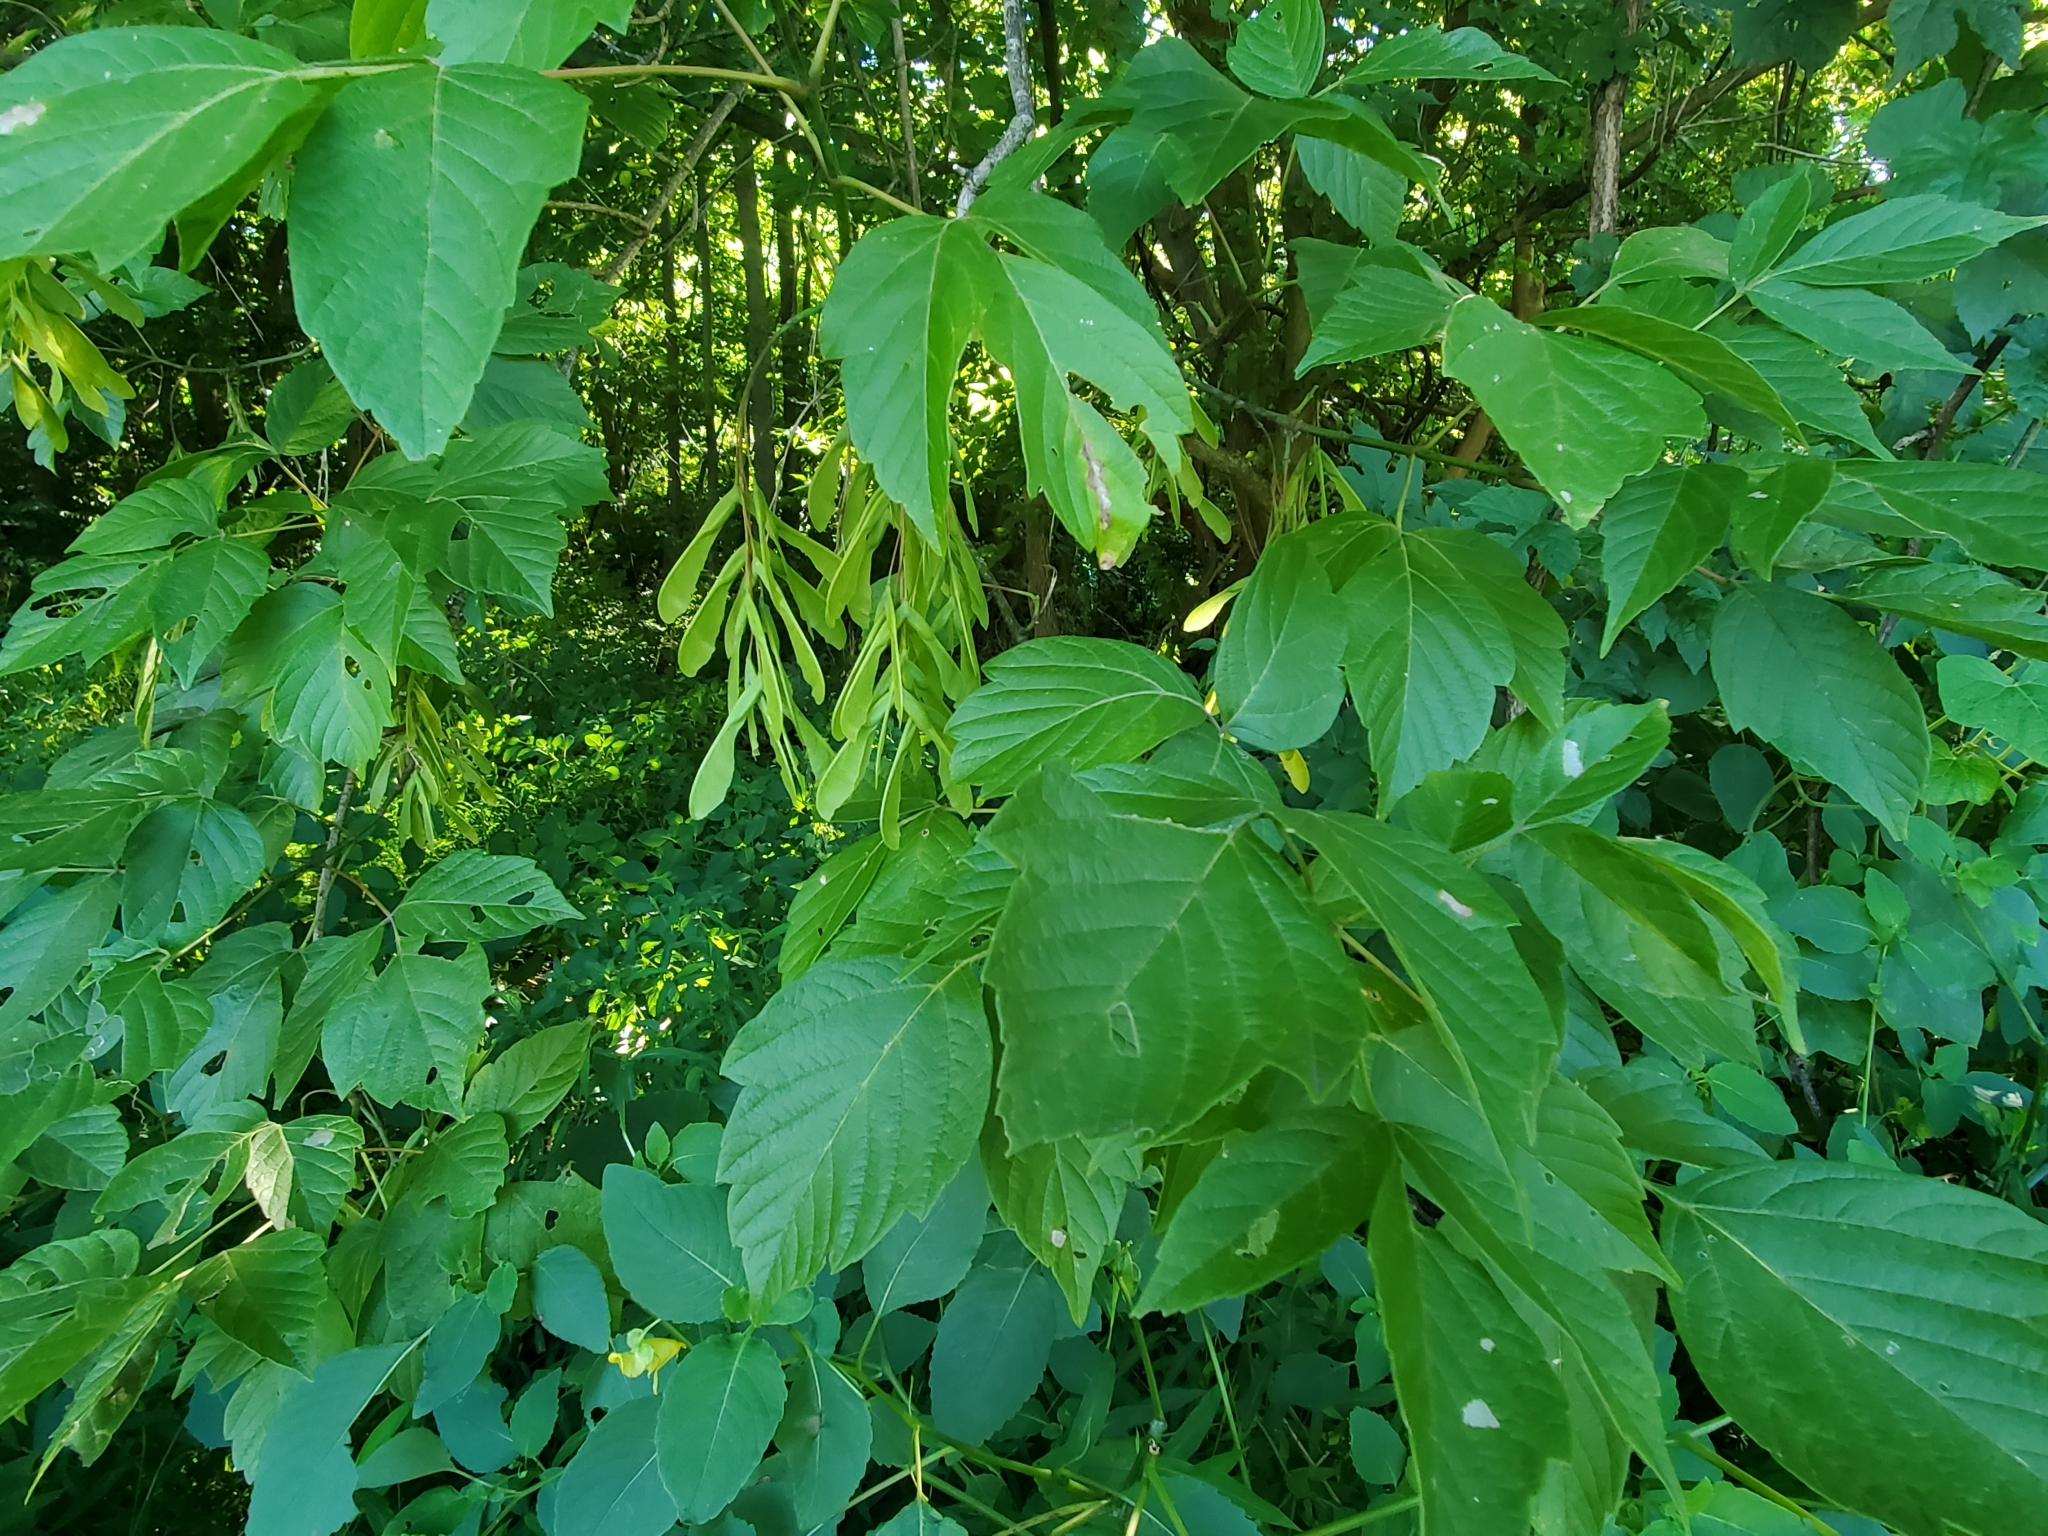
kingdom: Plantae
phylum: Tracheophyta
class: Magnoliopsida
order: Sapindales
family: Sapindaceae
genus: Acer
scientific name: Acer negundo
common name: Ashleaf maple
